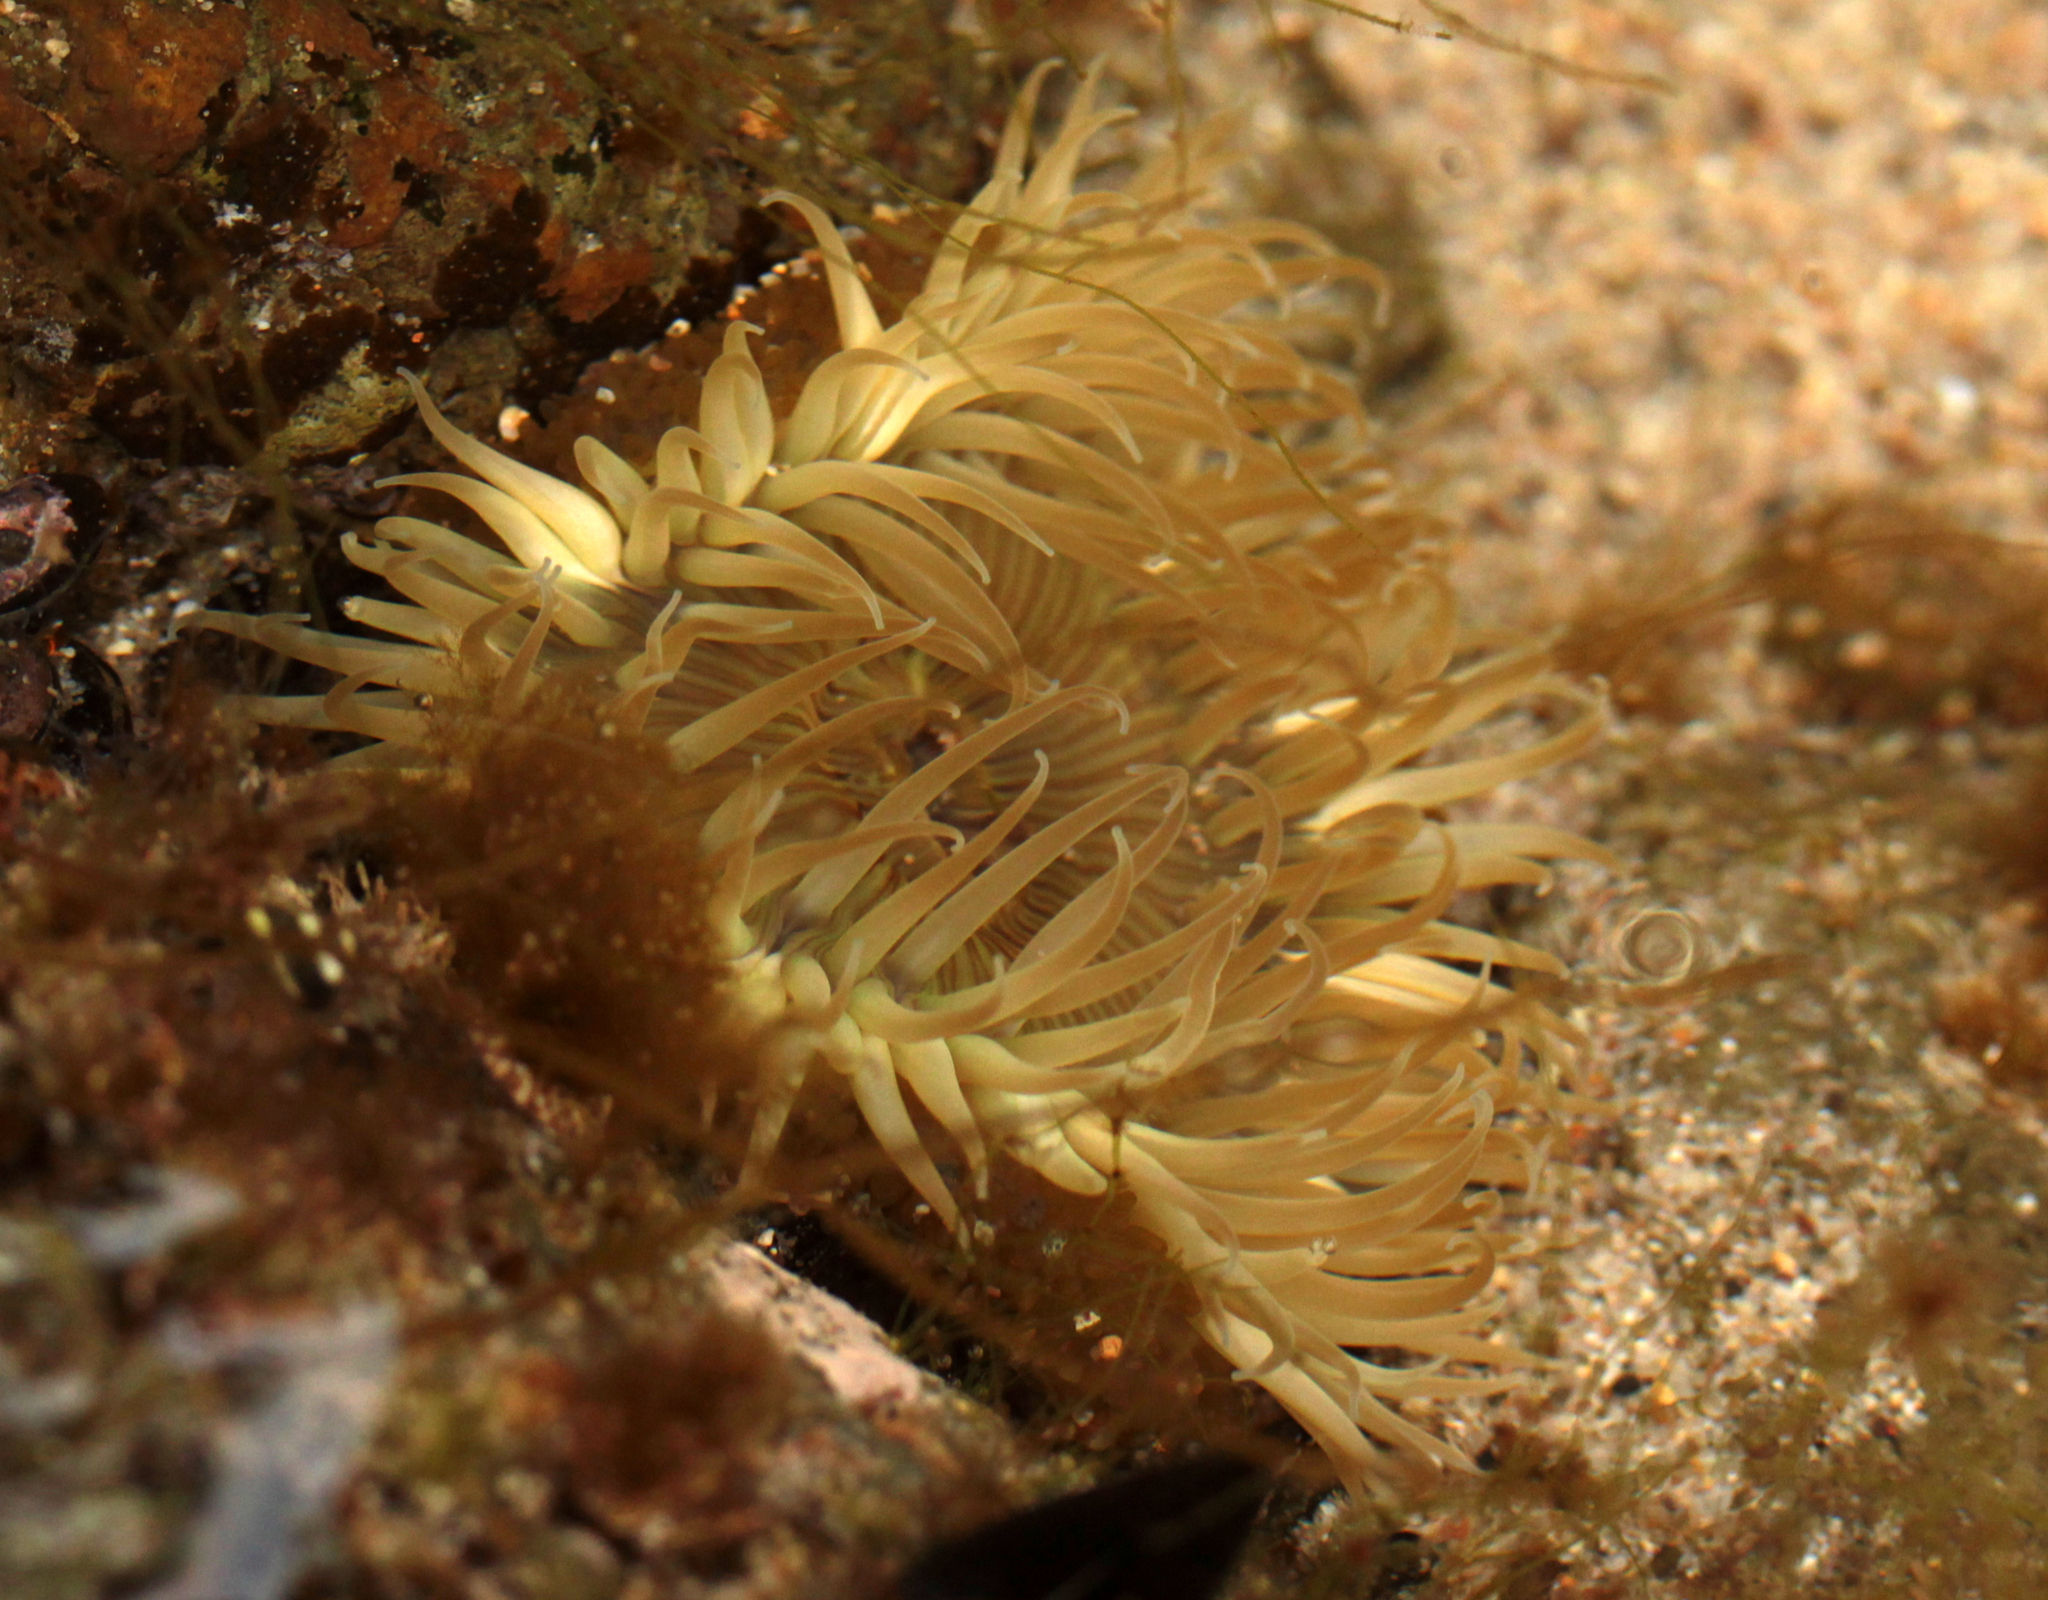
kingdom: Animalia
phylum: Cnidaria
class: Anthozoa
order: Actiniaria
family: Actiniidae
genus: Anthopleura
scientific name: Anthopleura sola
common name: Sun anemone
